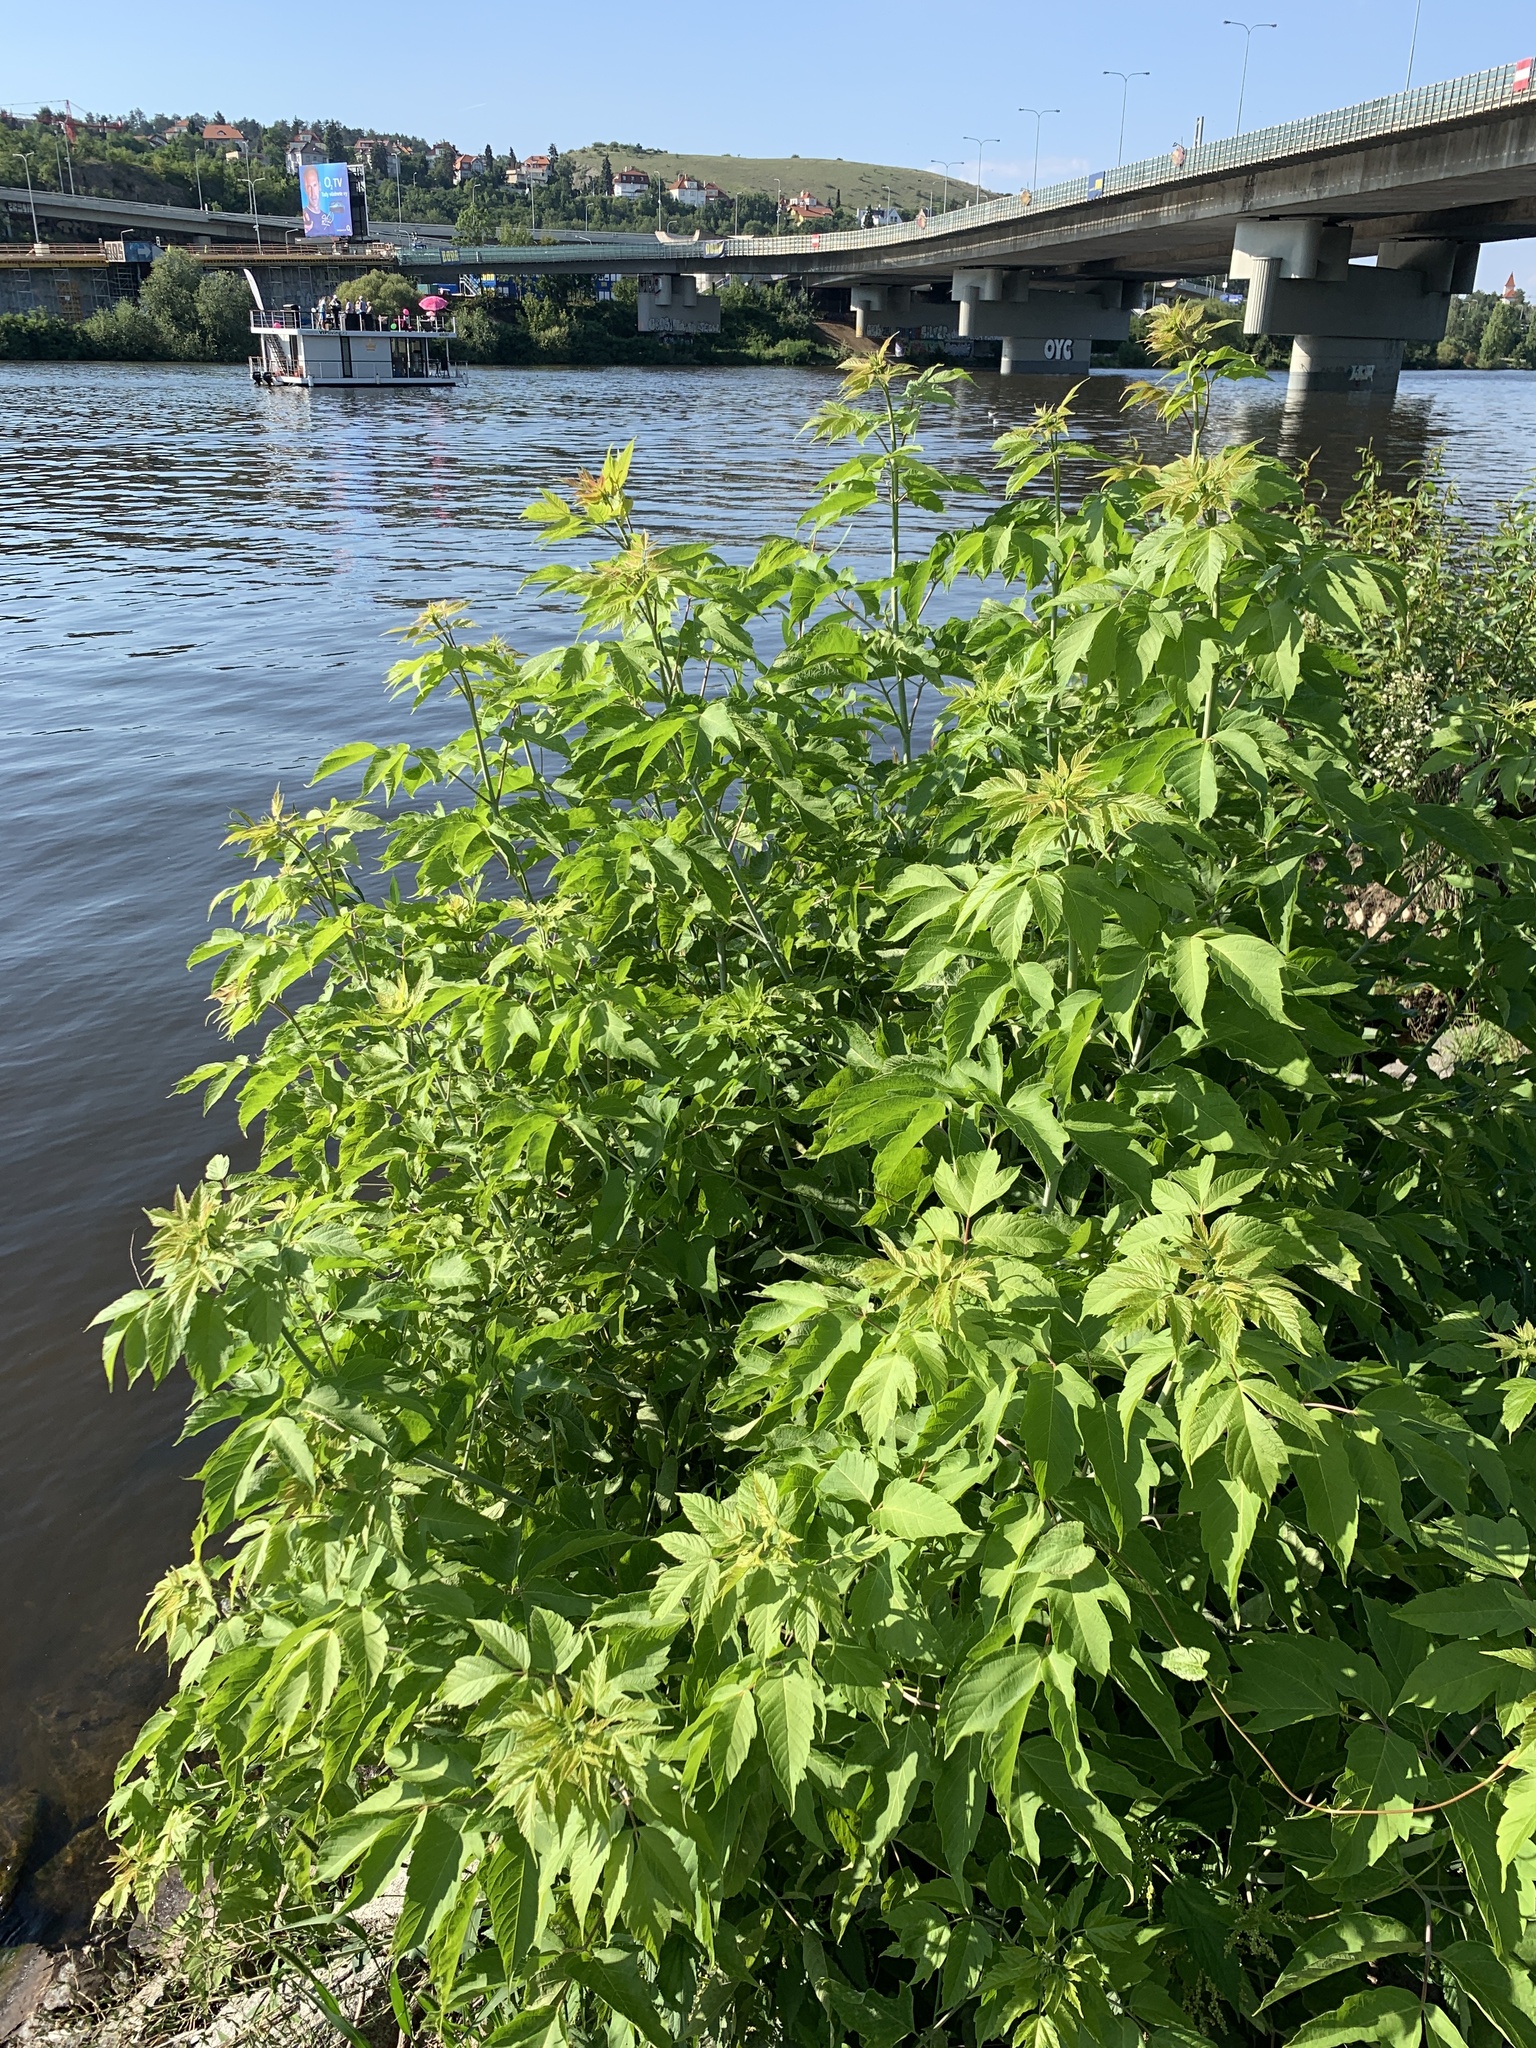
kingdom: Plantae
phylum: Tracheophyta
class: Magnoliopsida
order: Sapindales
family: Sapindaceae
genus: Acer
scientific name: Acer negundo
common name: Ashleaf maple
